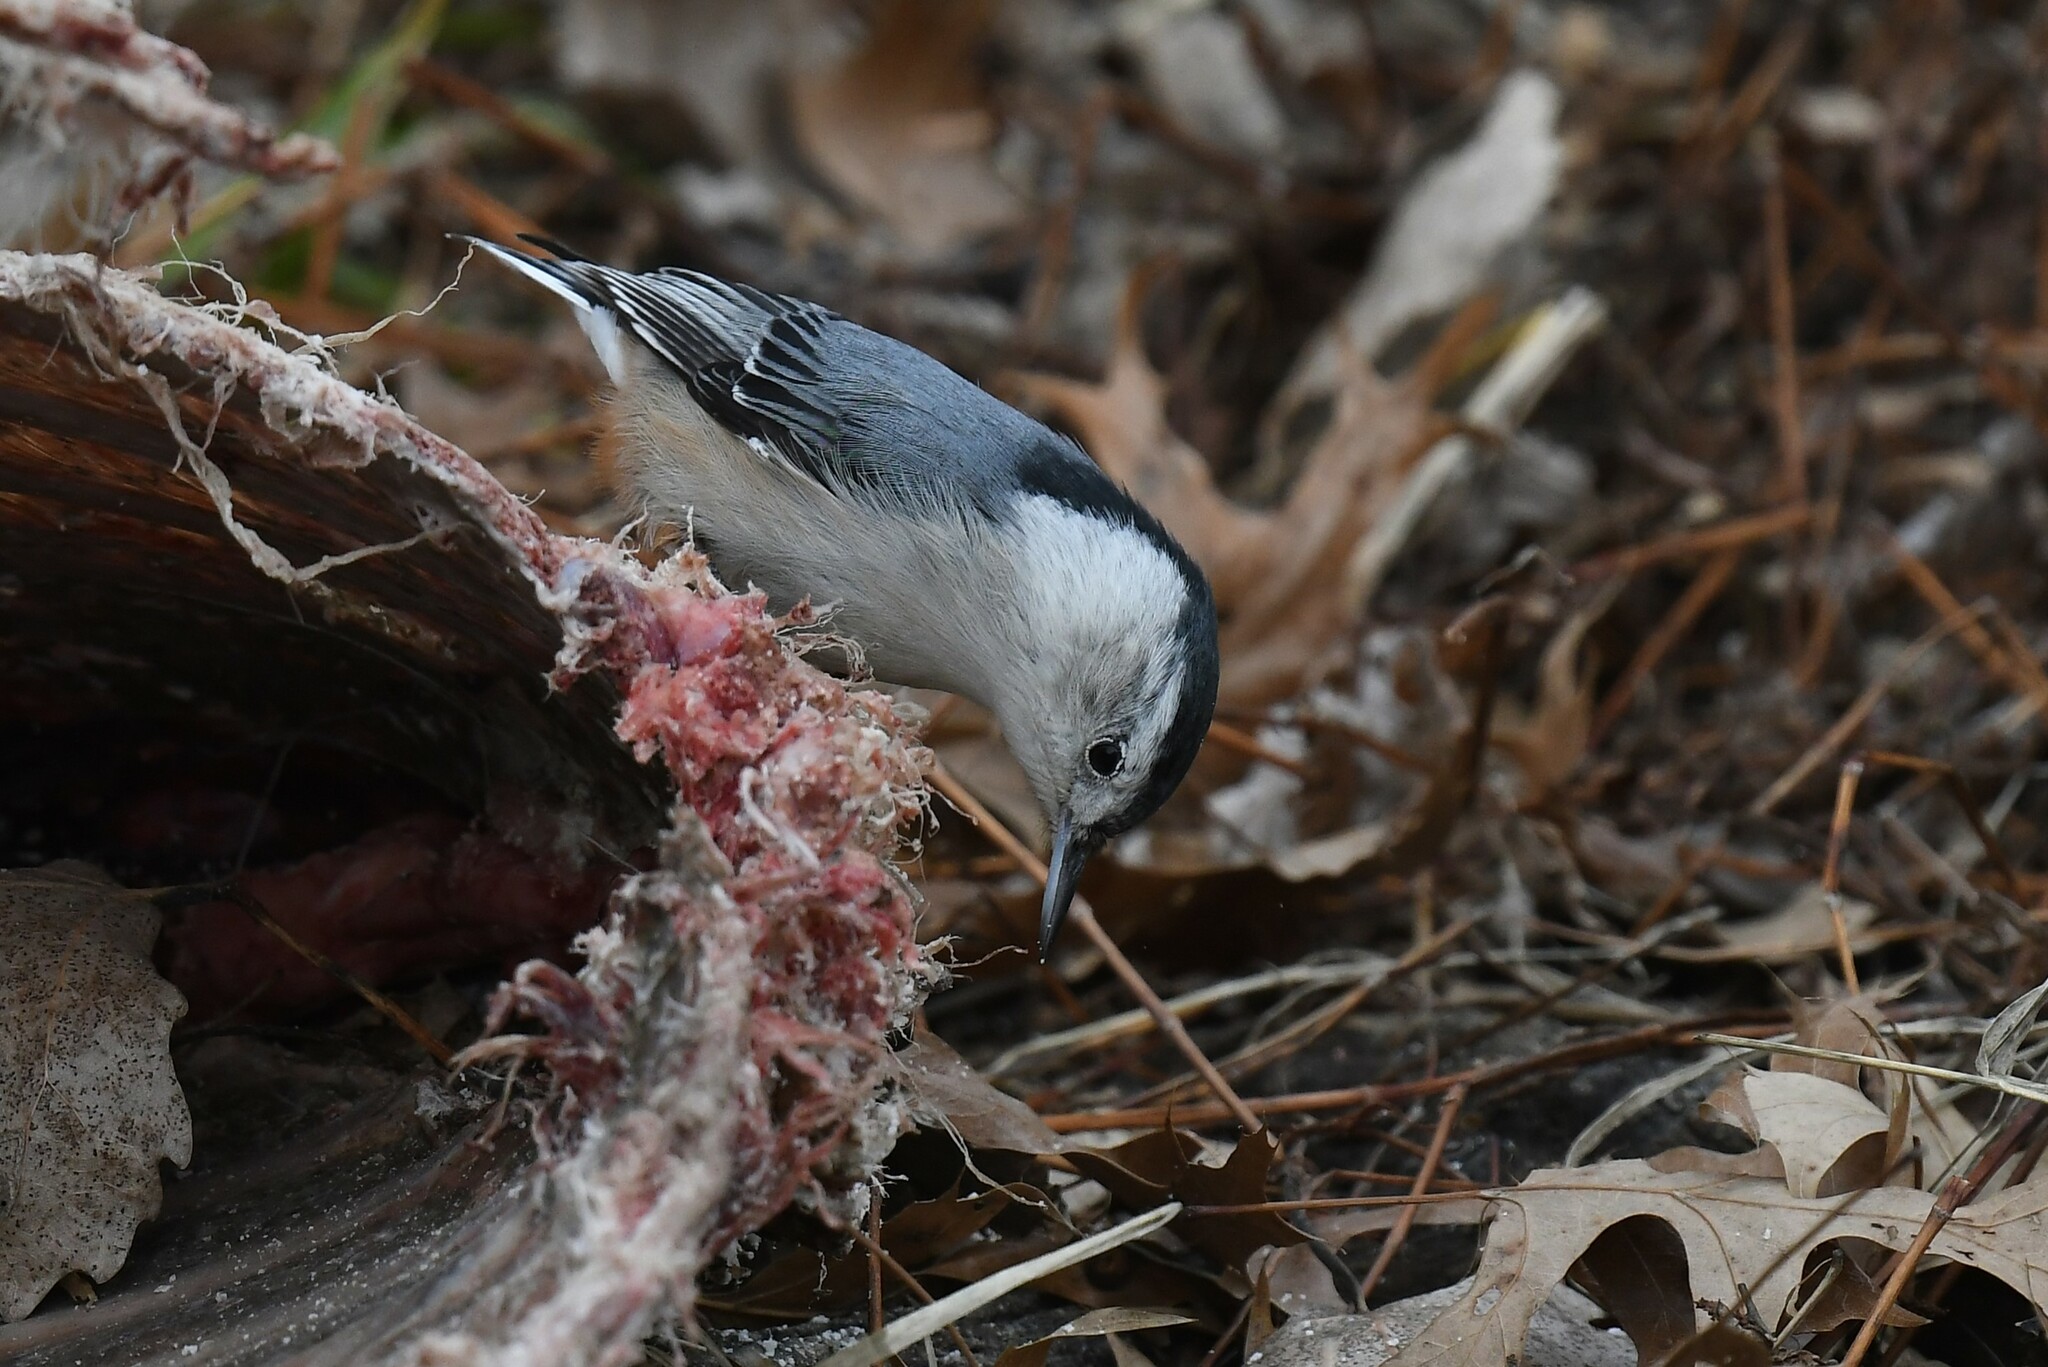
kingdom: Animalia
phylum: Chordata
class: Aves
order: Passeriformes
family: Sittidae
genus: Sitta
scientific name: Sitta carolinensis
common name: White-breasted nuthatch
